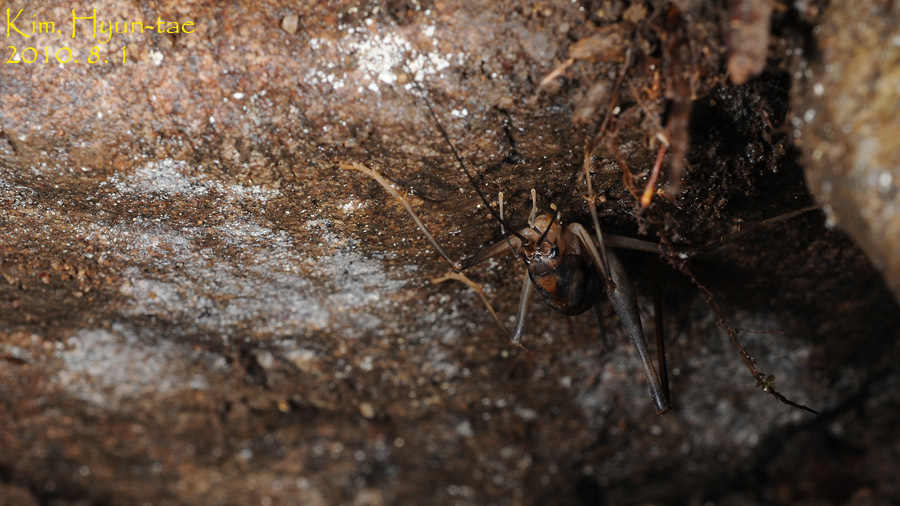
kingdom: Animalia
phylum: Arthropoda
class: Insecta
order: Orthoptera
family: Rhaphidophoridae
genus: Tachycines
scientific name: Tachycines asynamorus
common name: Greenhouse camel cricket
